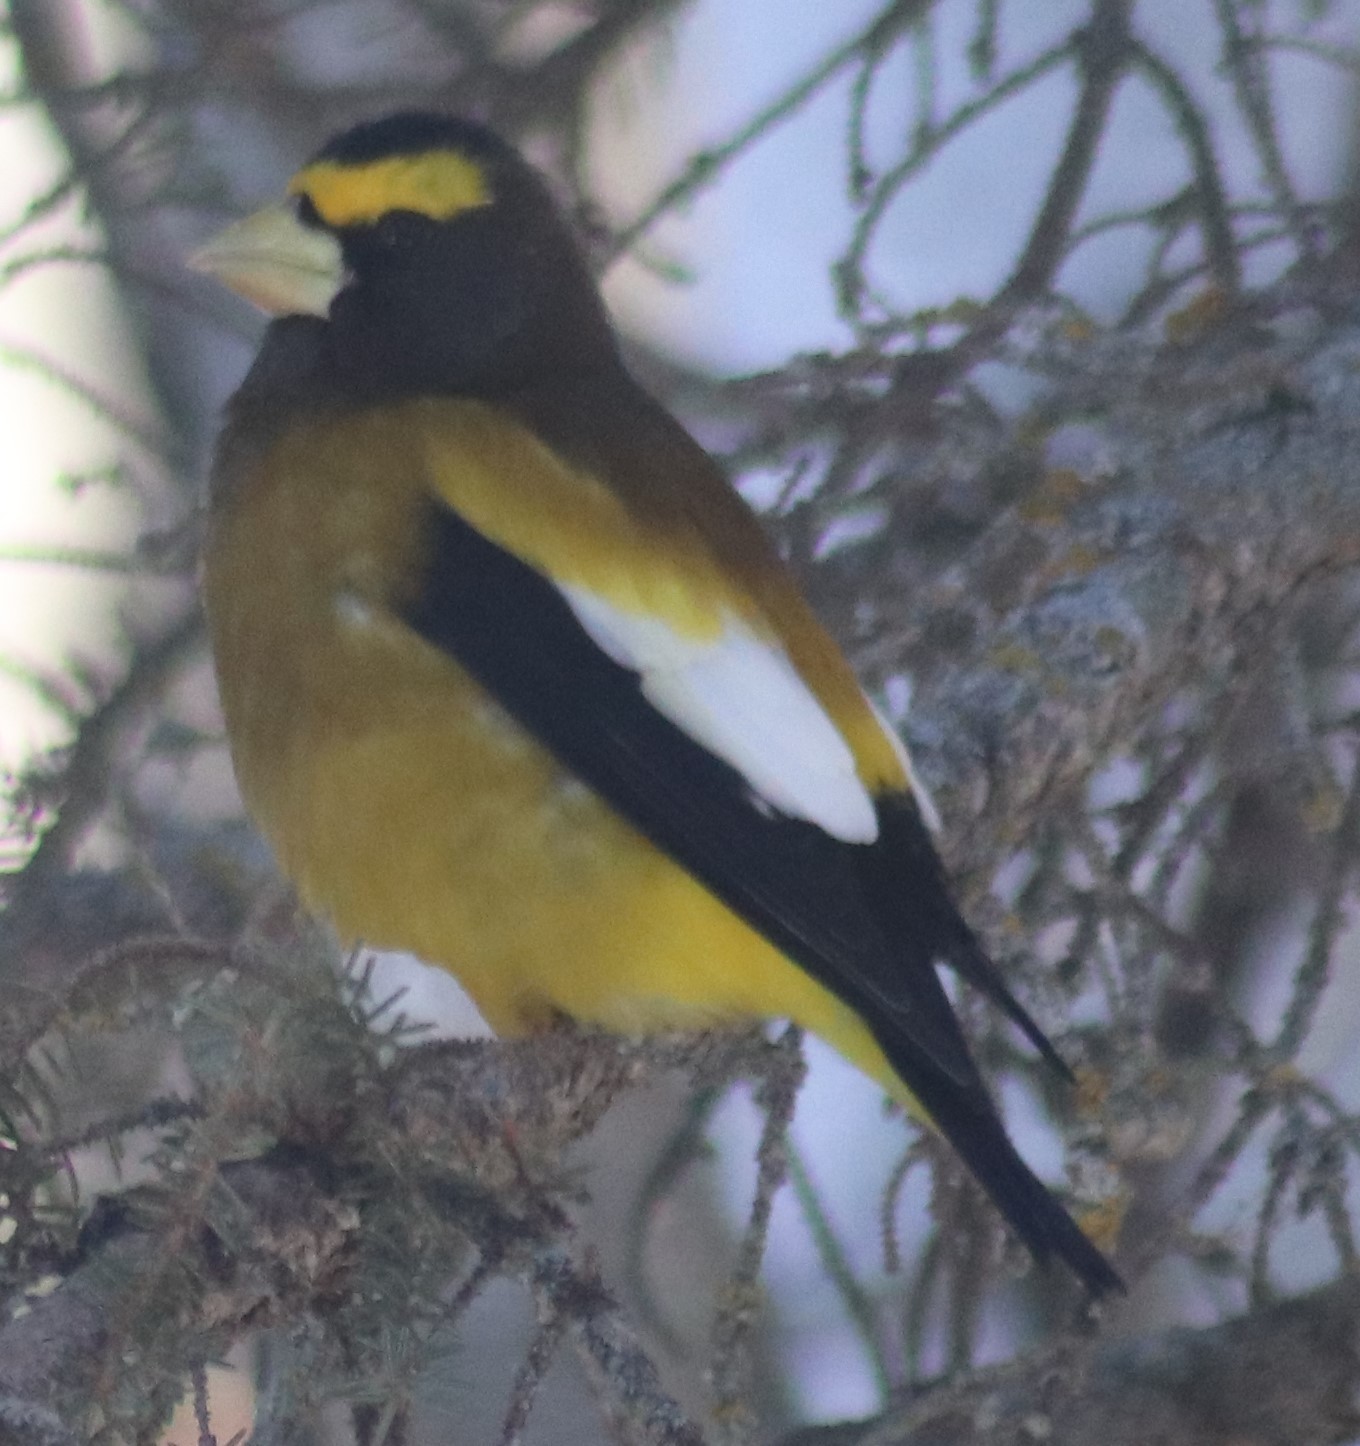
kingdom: Animalia
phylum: Chordata
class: Aves
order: Passeriformes
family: Fringillidae
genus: Hesperiphona
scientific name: Hesperiphona vespertina
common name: Evening grosbeak
